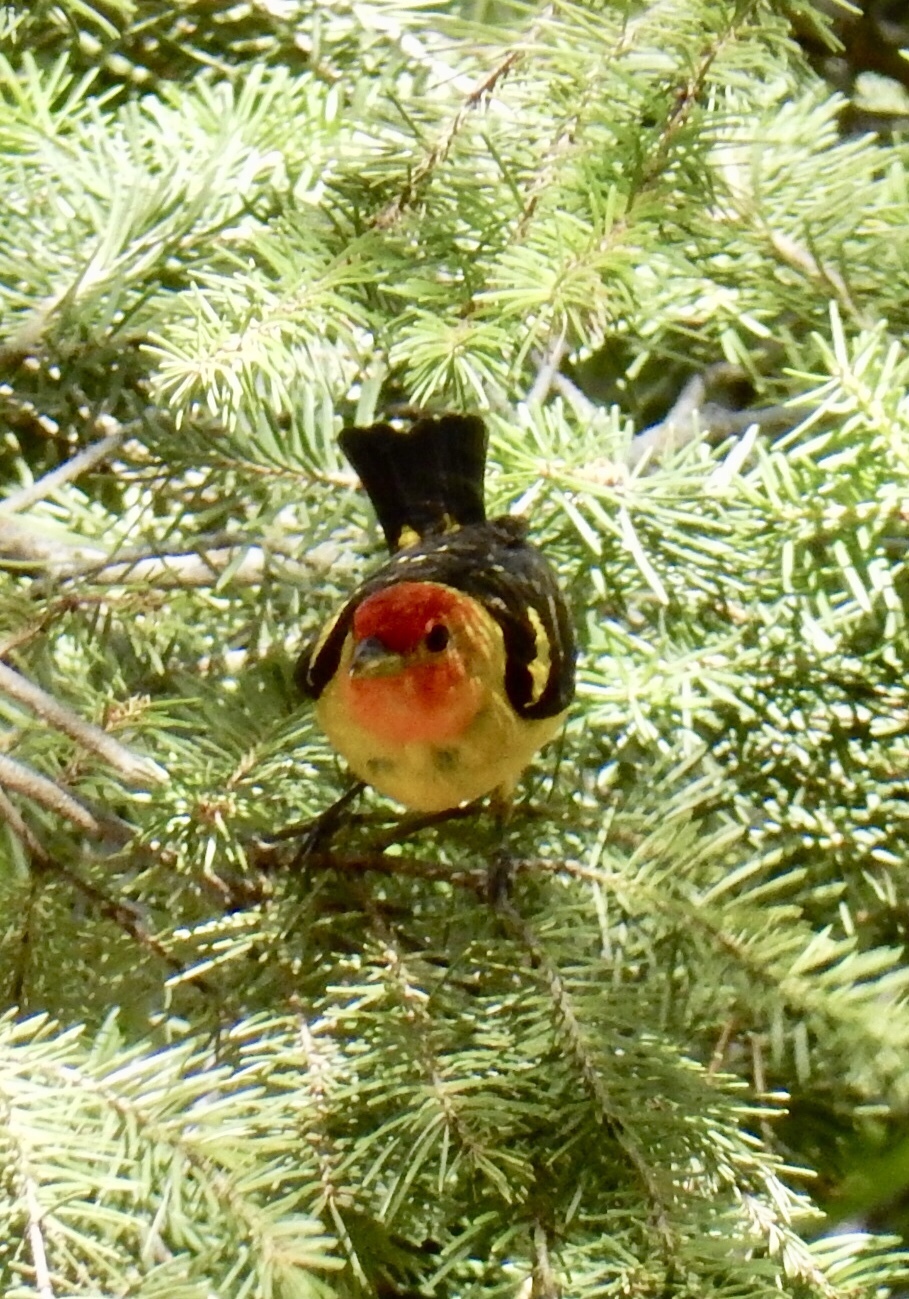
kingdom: Animalia
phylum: Chordata
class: Aves
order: Passeriformes
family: Cardinalidae
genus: Piranga
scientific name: Piranga ludoviciana
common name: Western tanager
